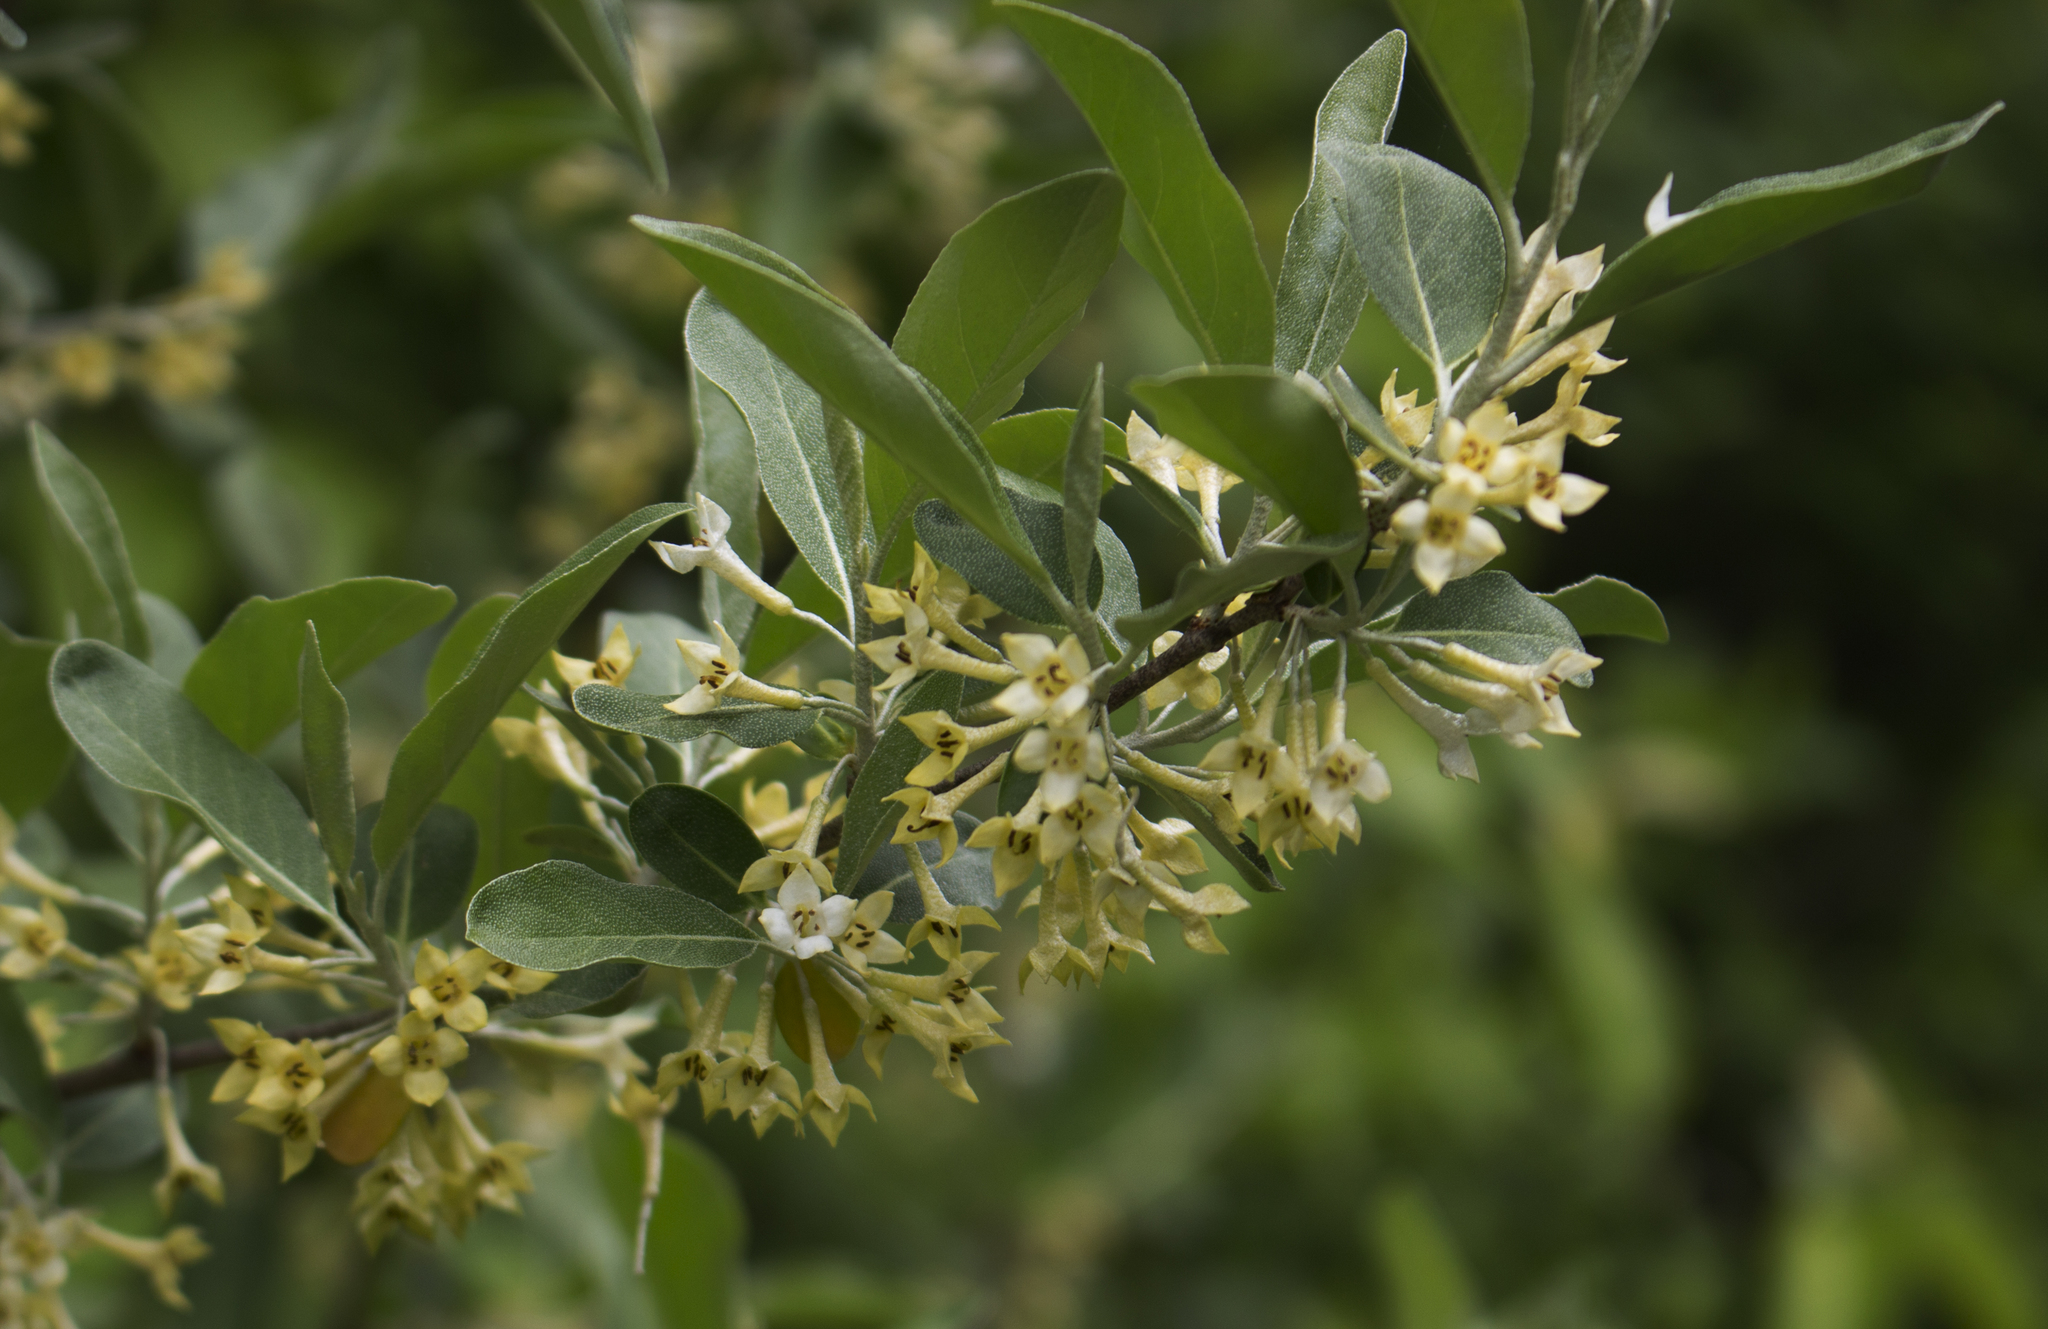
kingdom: Plantae
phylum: Tracheophyta
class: Magnoliopsida
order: Rosales
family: Elaeagnaceae
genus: Elaeagnus
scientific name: Elaeagnus umbellata
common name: Autumn olive
